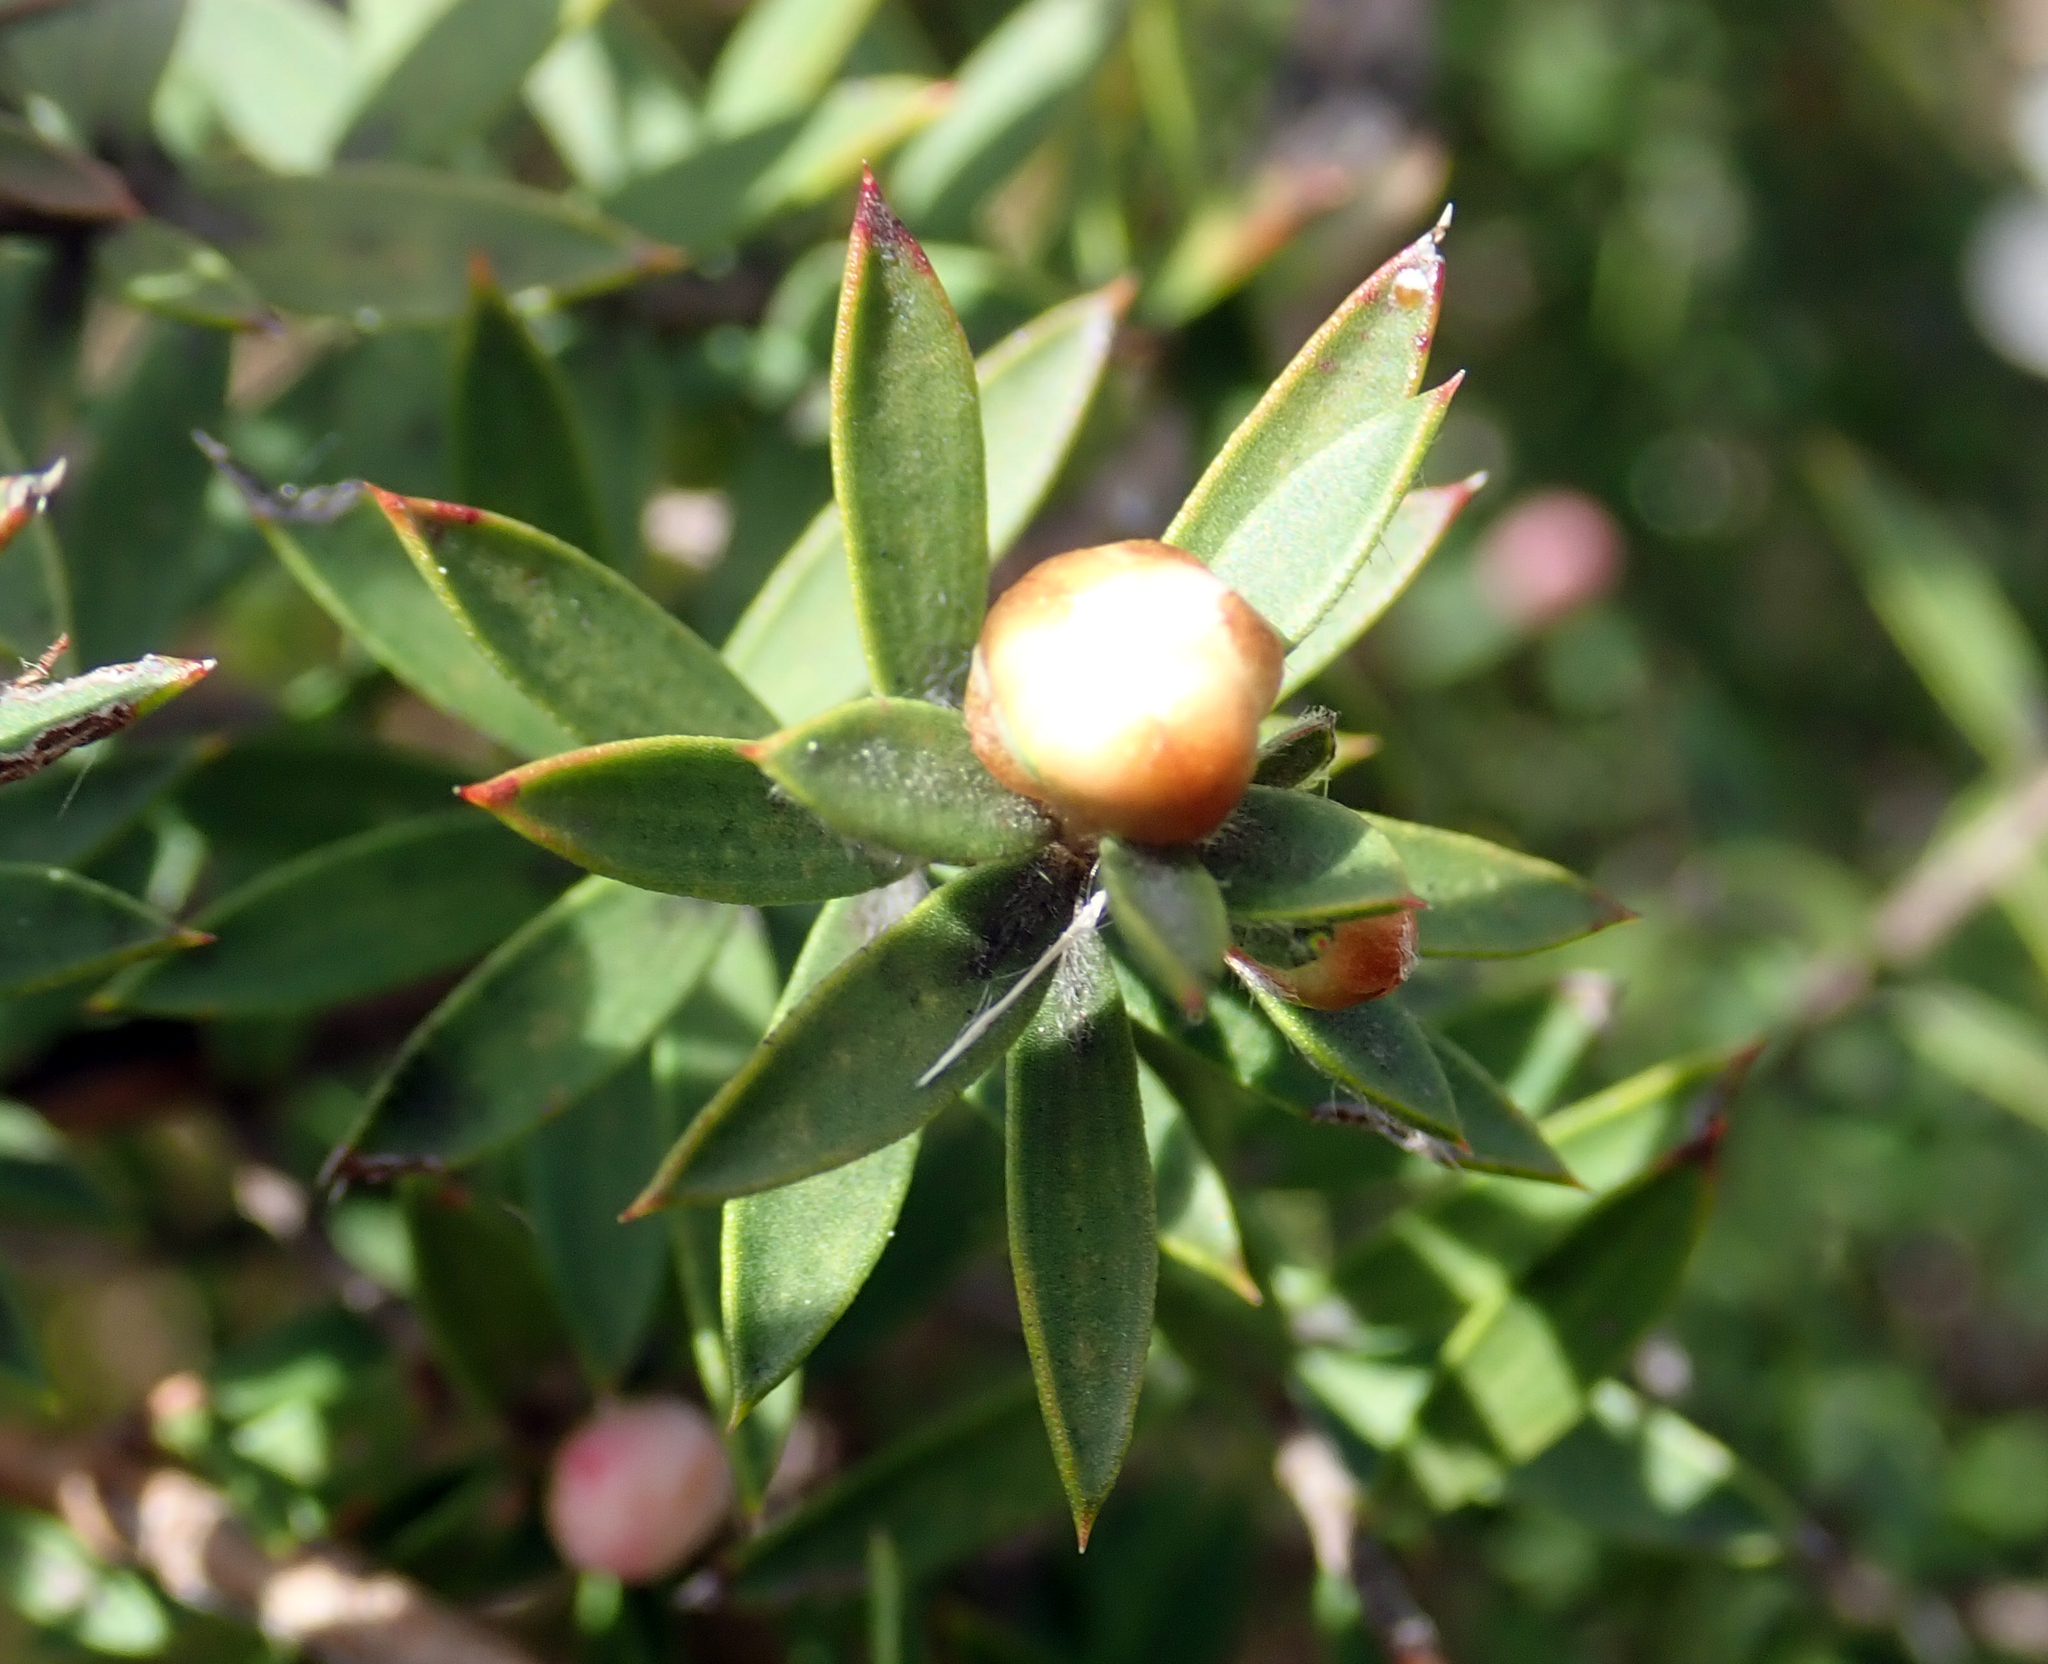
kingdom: Plantae
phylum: Tracheophyta
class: Magnoliopsida
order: Myrtales
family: Myrtaceae
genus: Leptospermum
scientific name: Leptospermum scoparium
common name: Broom tea-tree
